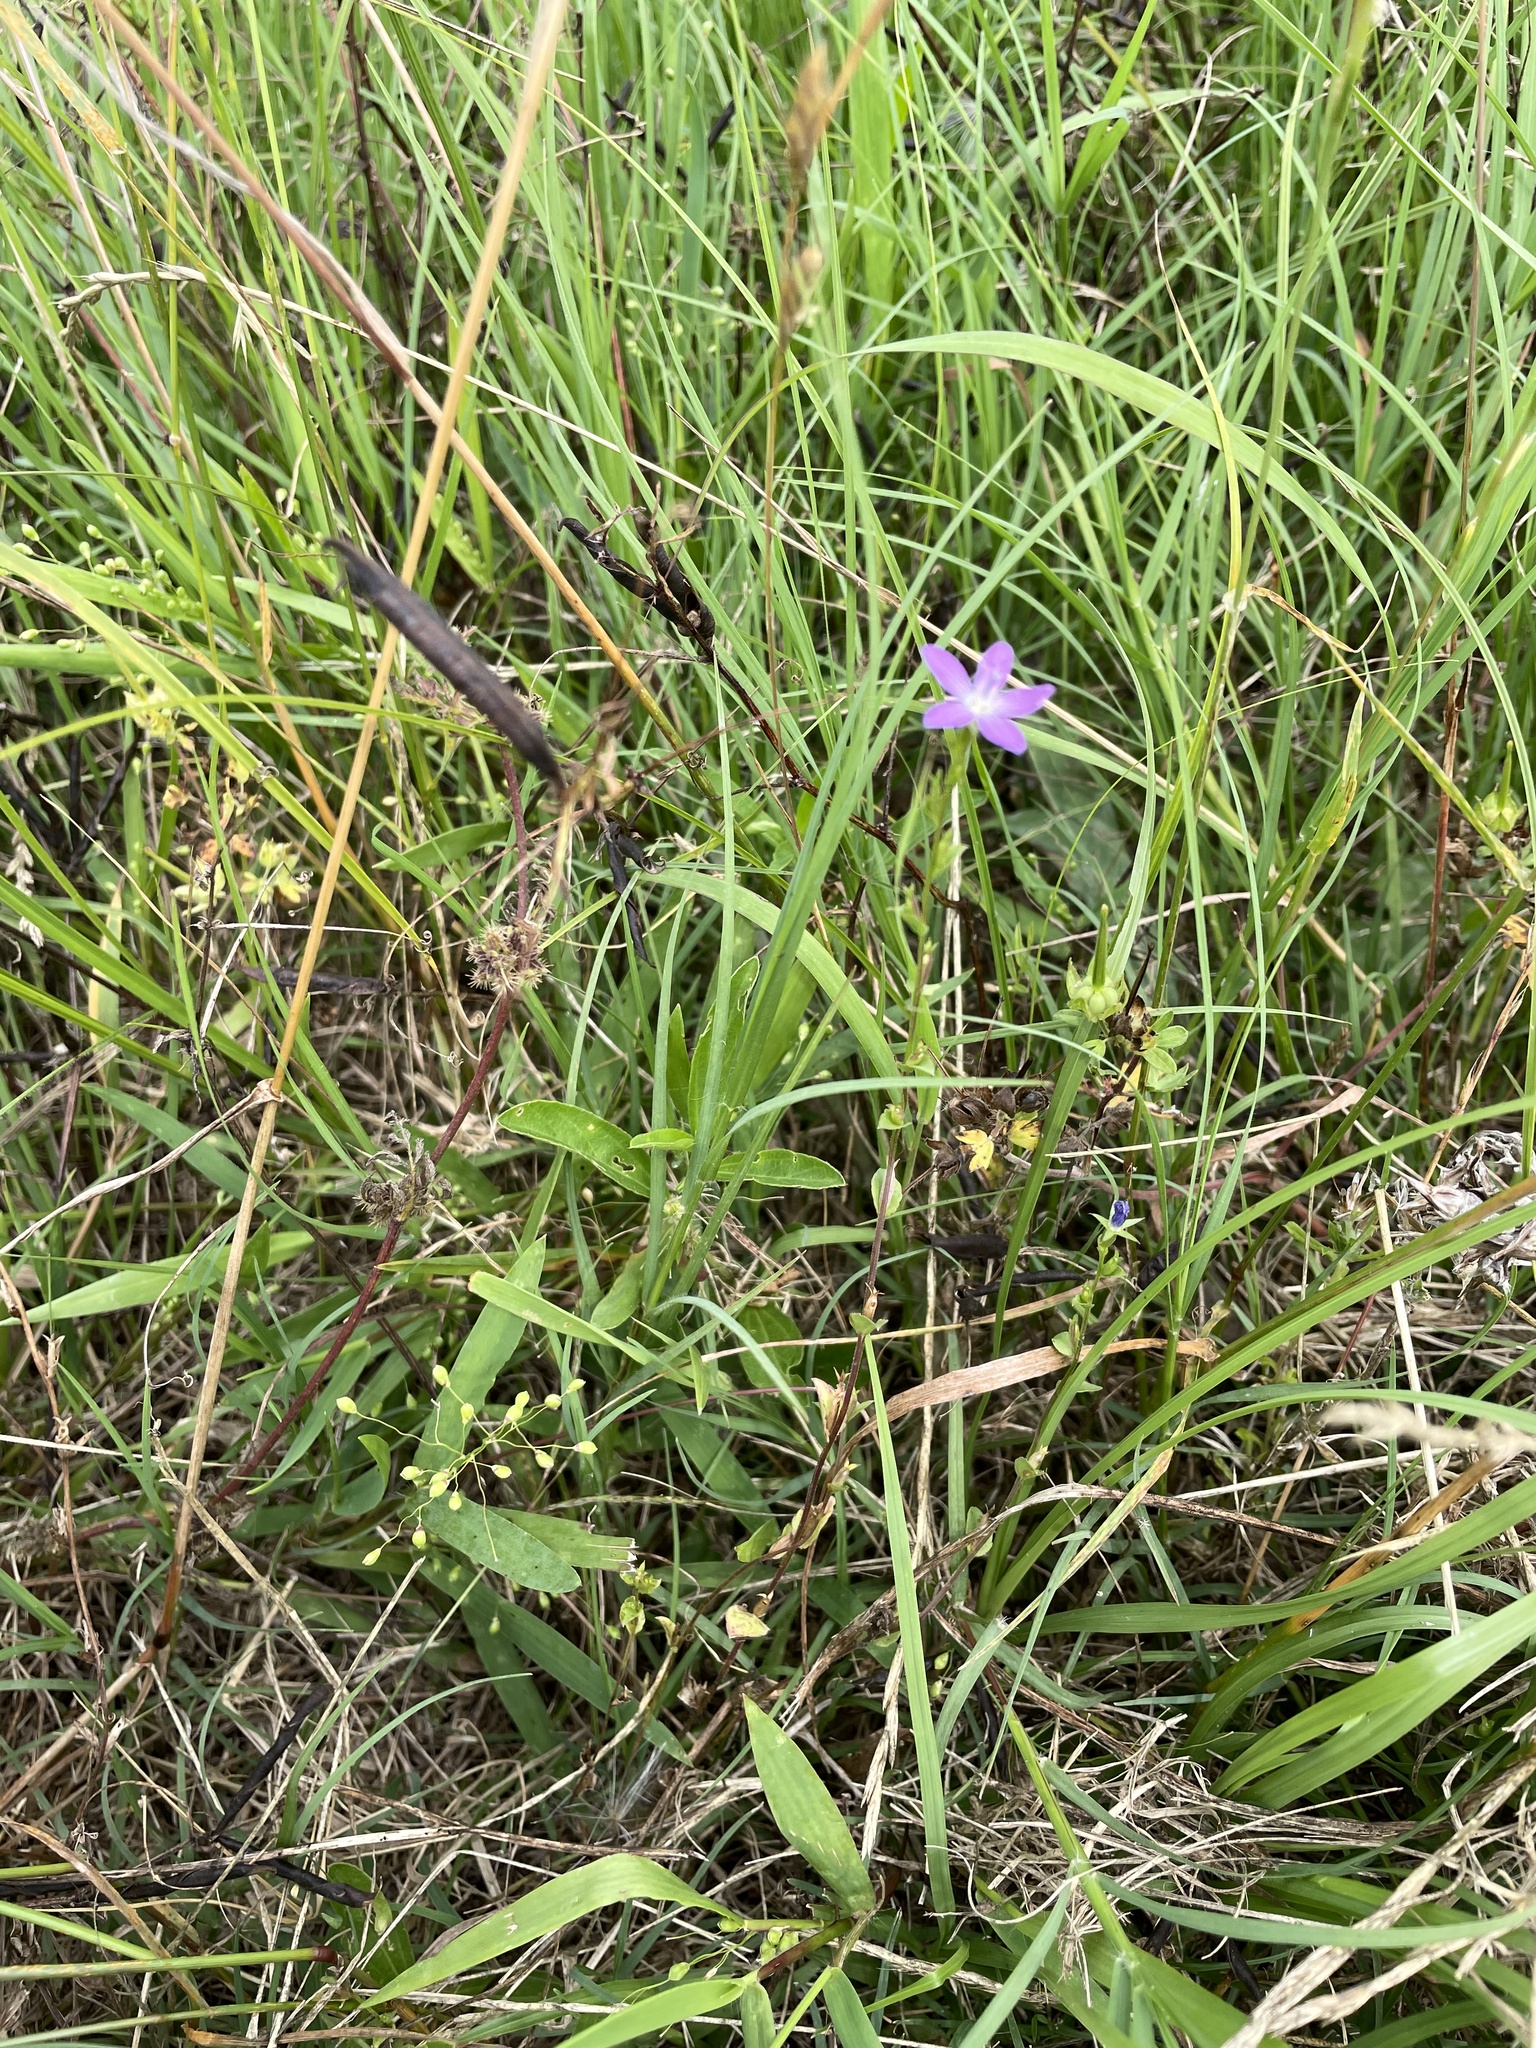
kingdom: Plantae
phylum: Tracheophyta
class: Magnoliopsida
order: Asterales
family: Campanulaceae
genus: Triodanis
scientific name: Triodanis biflora
